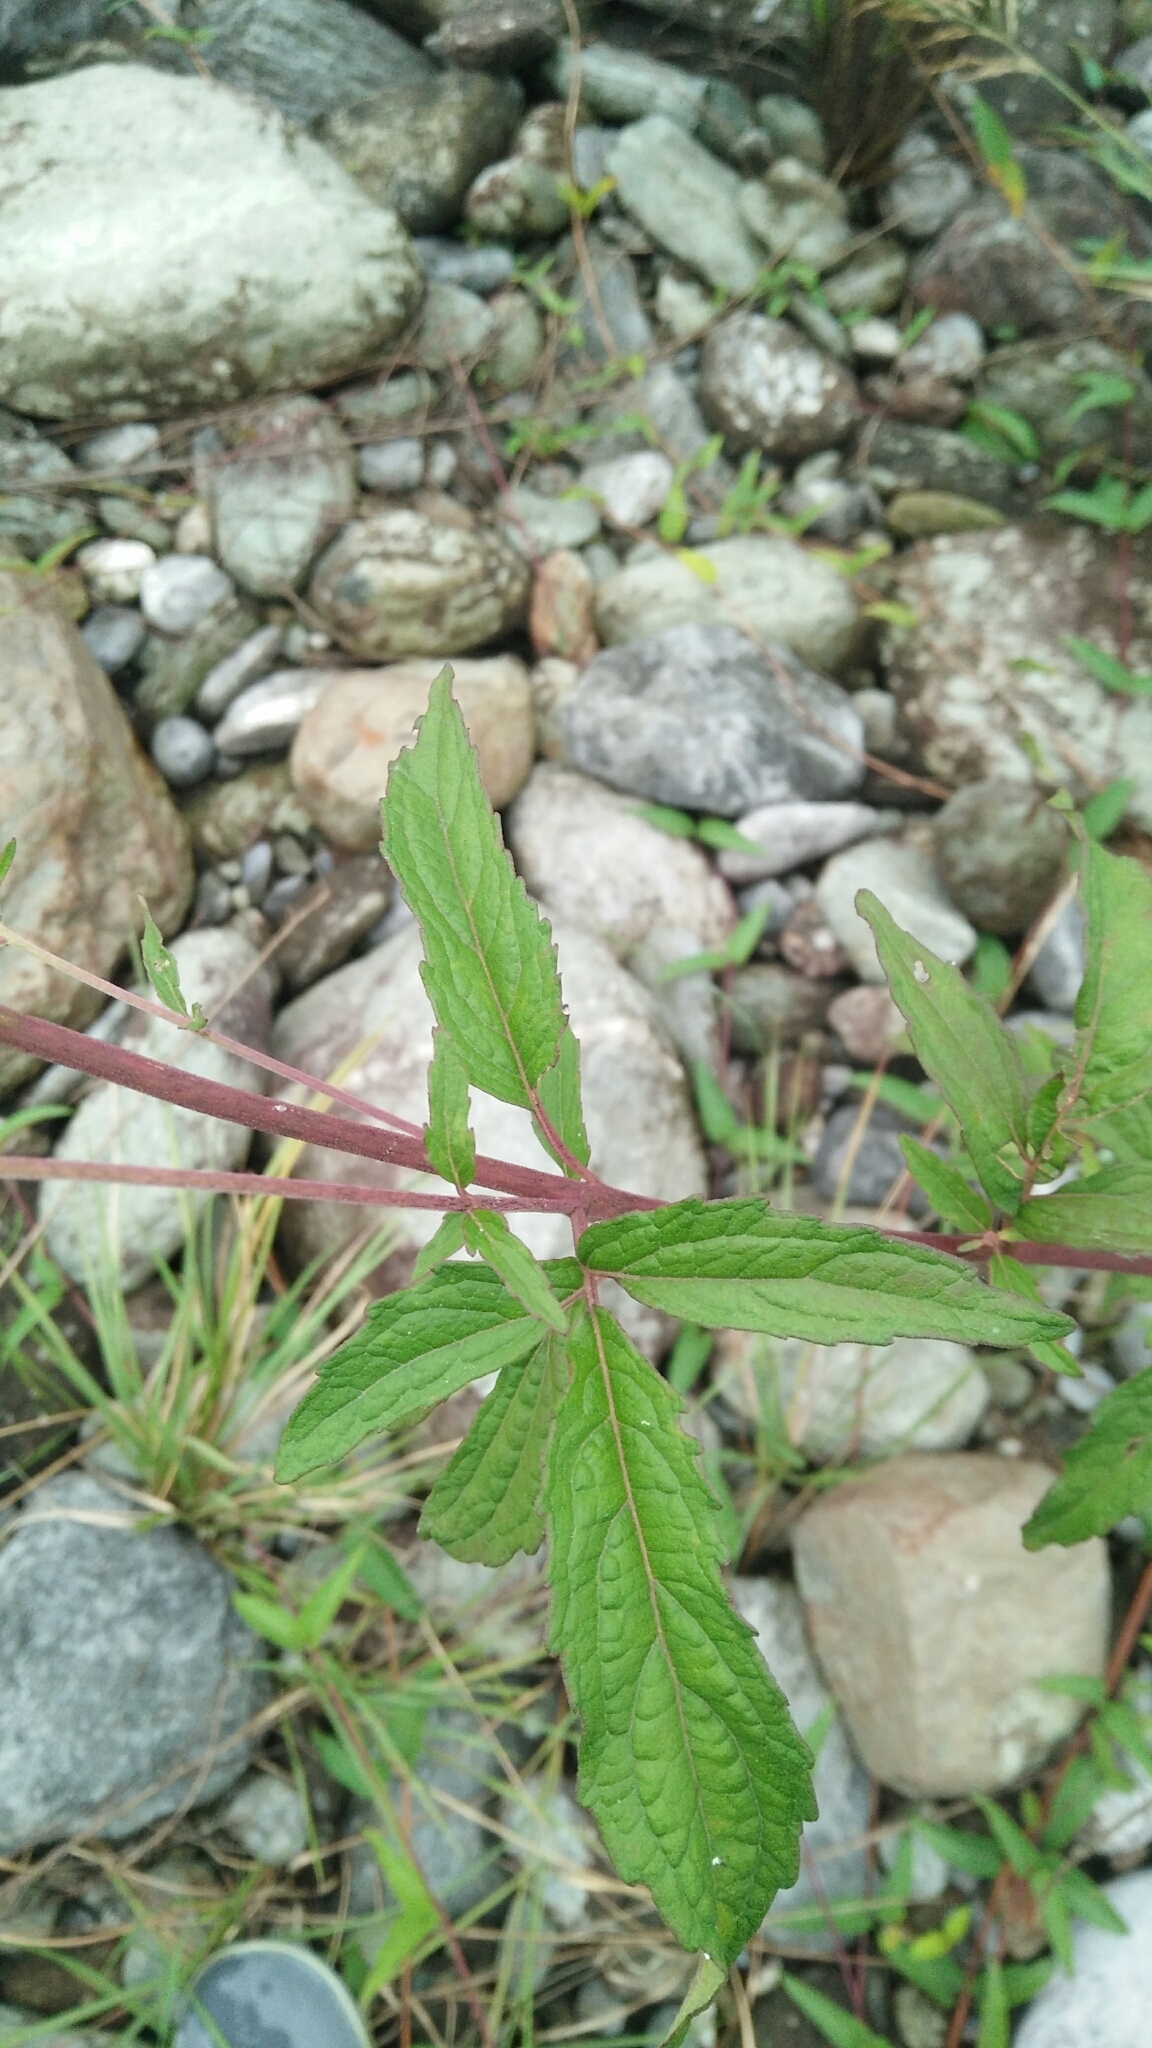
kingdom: Plantae
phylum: Tracheophyta
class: Magnoliopsida
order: Asterales
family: Asteraceae
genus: Eupatorium
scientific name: Eupatorium formosanum
